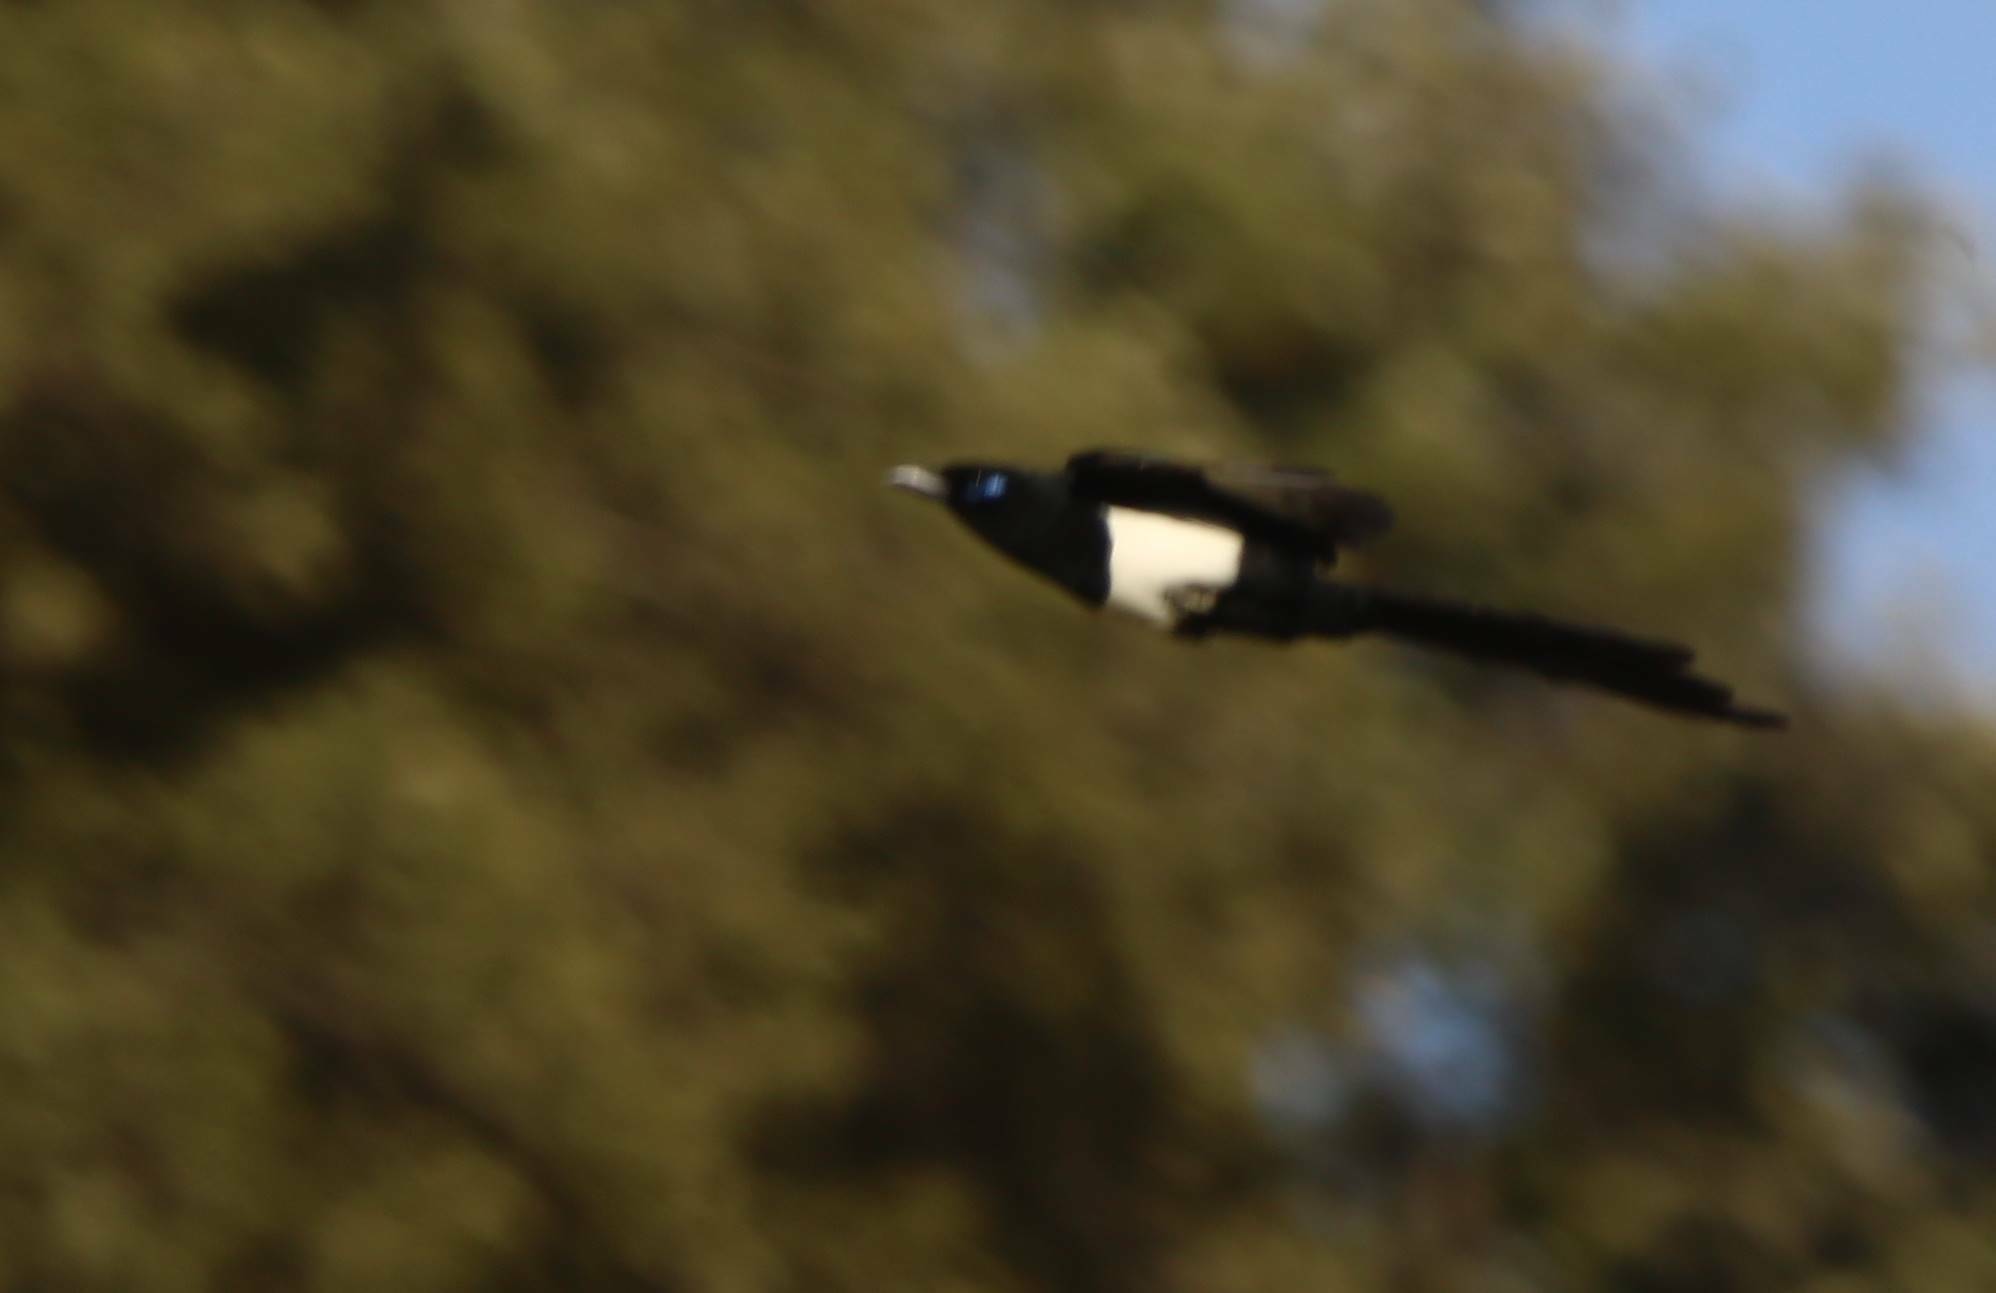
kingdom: Animalia
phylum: Chordata
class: Aves
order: Passeriformes
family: Corvidae
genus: Pica
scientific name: Pica mauritanica
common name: Maghreb magpie
